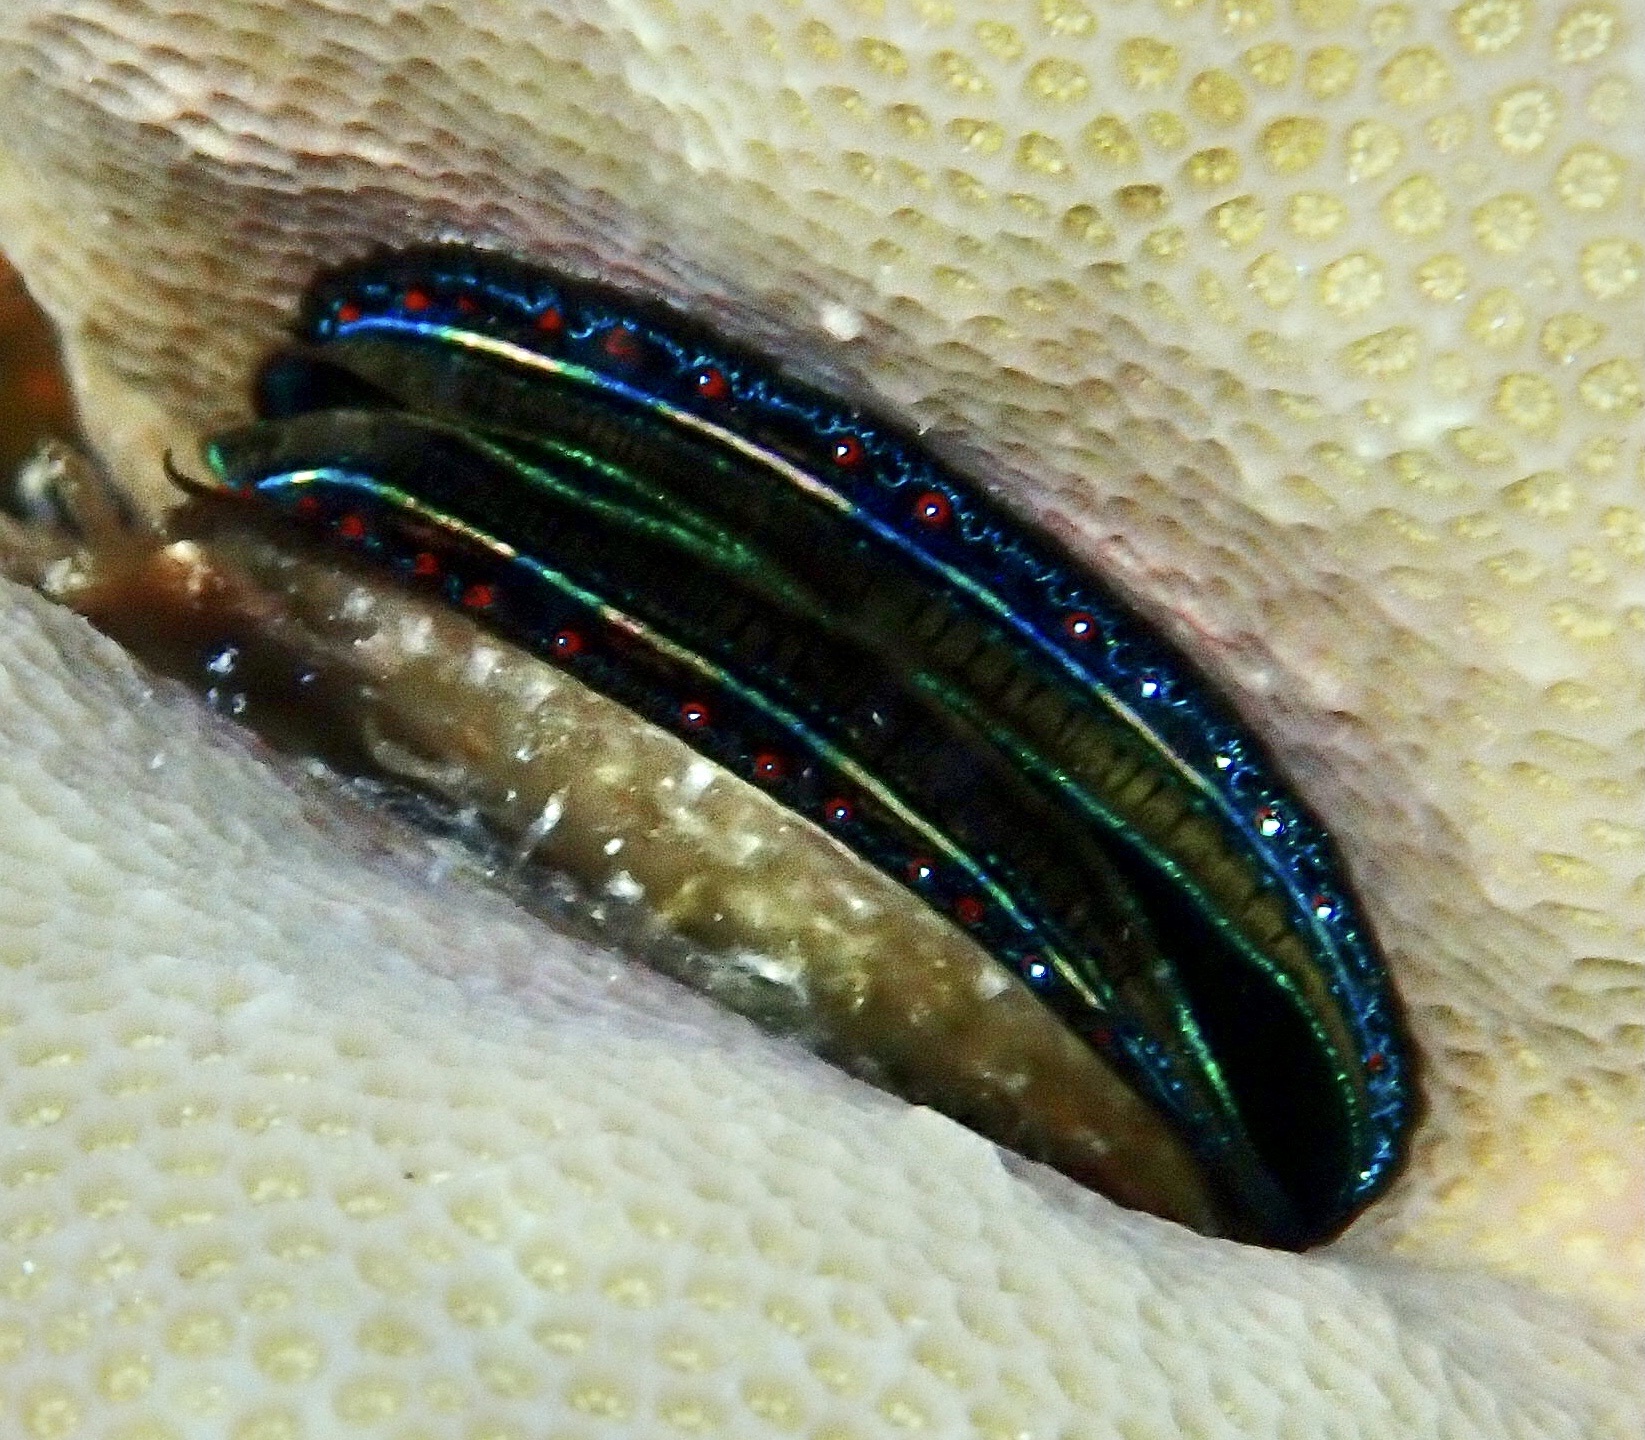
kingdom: Animalia
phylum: Mollusca
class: Bivalvia
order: Pectinida
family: Pectinidae
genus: Pedum
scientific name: Pedum spondyloideum
